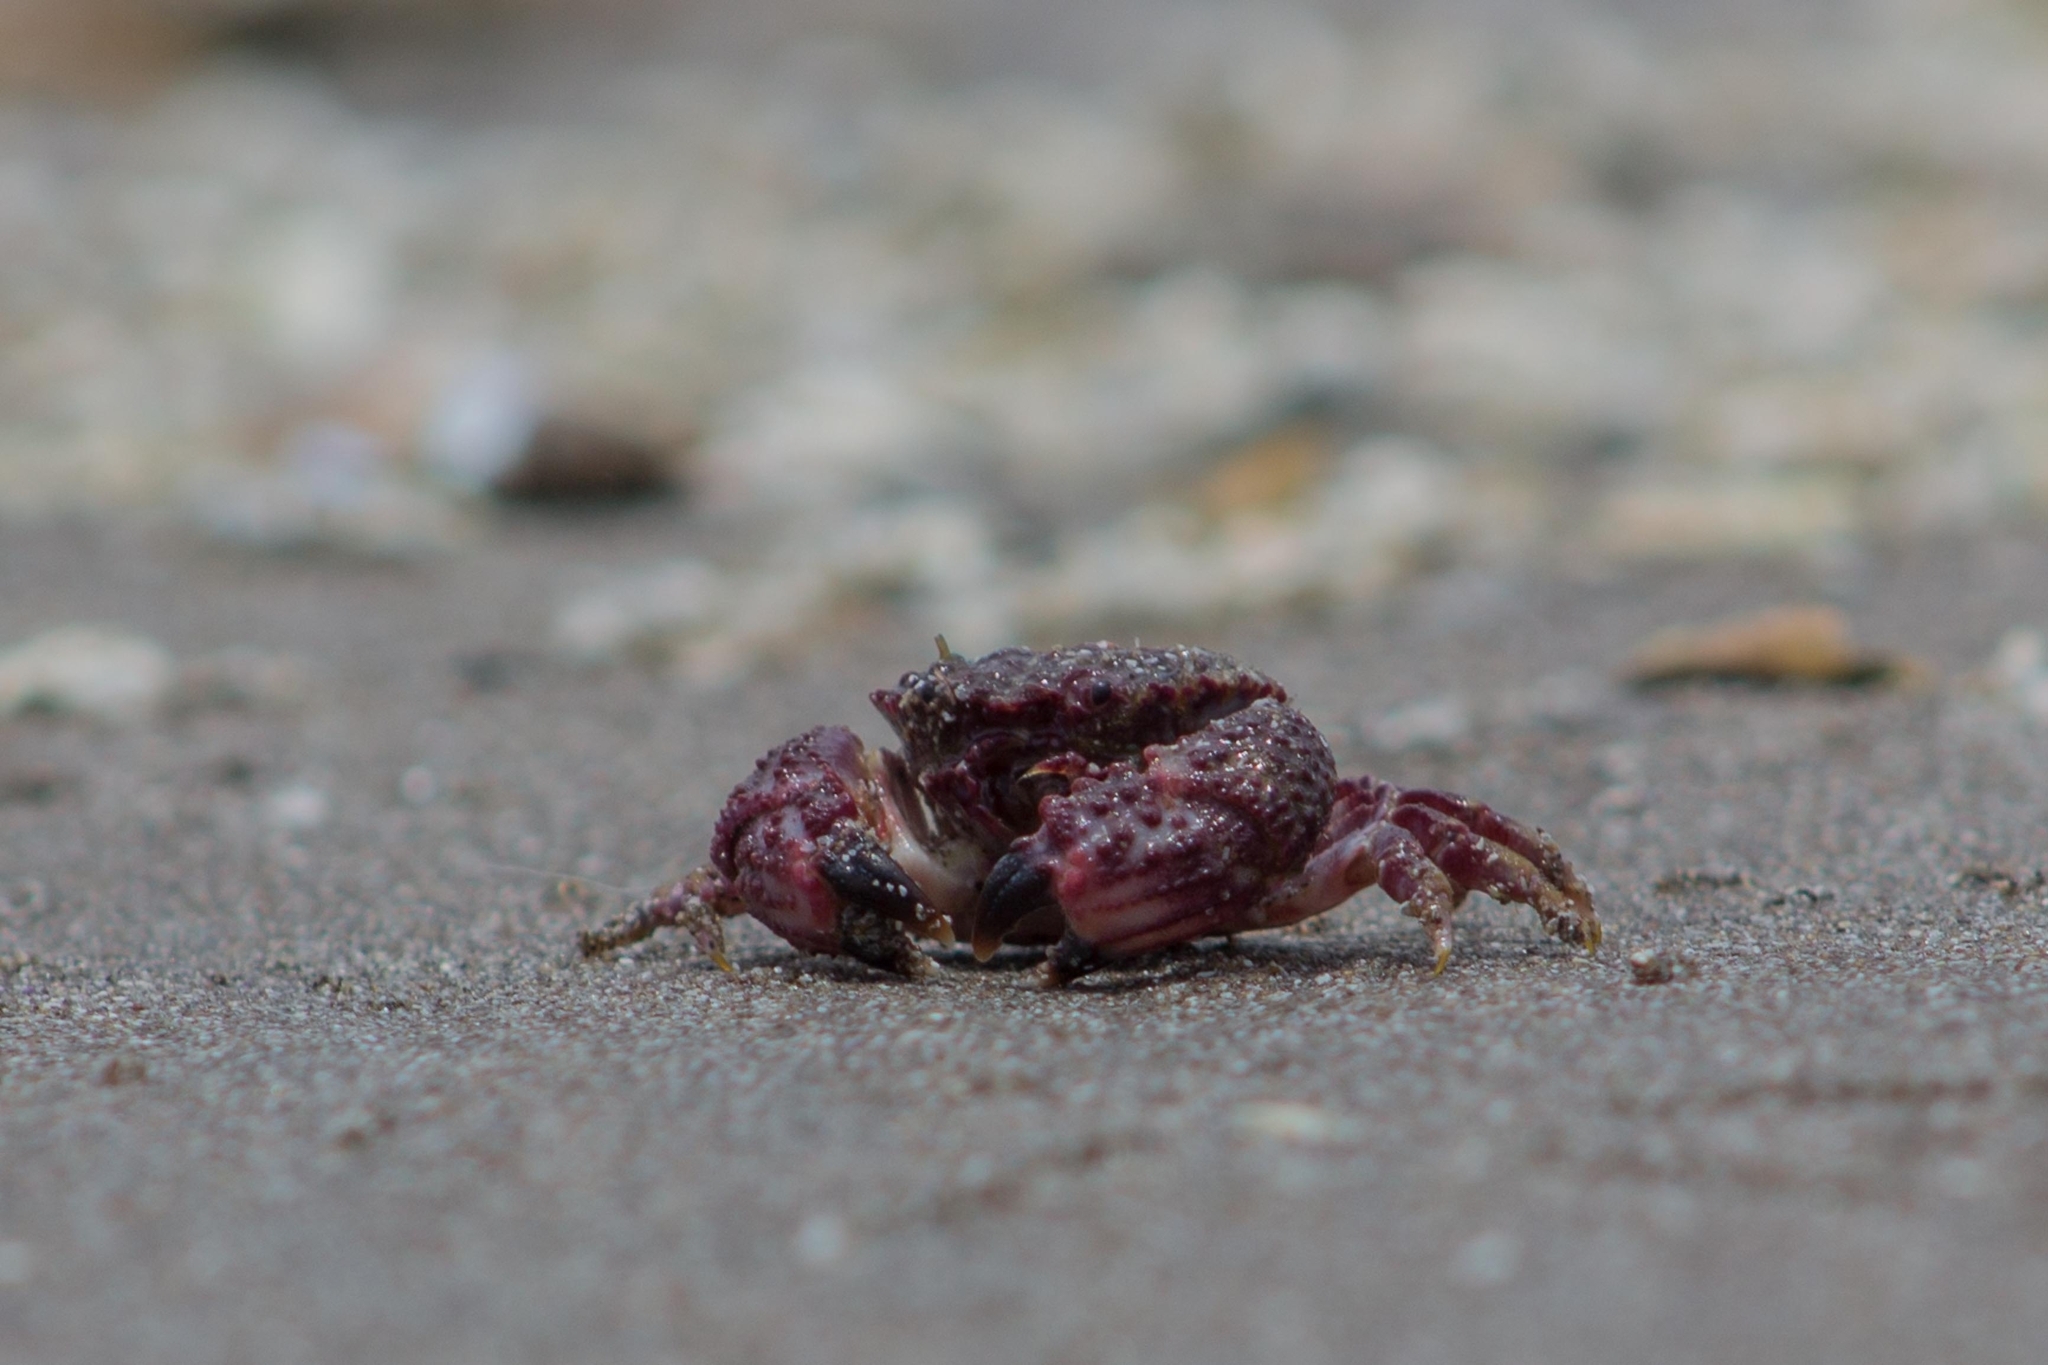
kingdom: Animalia
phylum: Arthropoda
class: Malacostraca
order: Decapoda
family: Pilumnoididae
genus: Pilumnoides
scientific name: Pilumnoides perlatus
